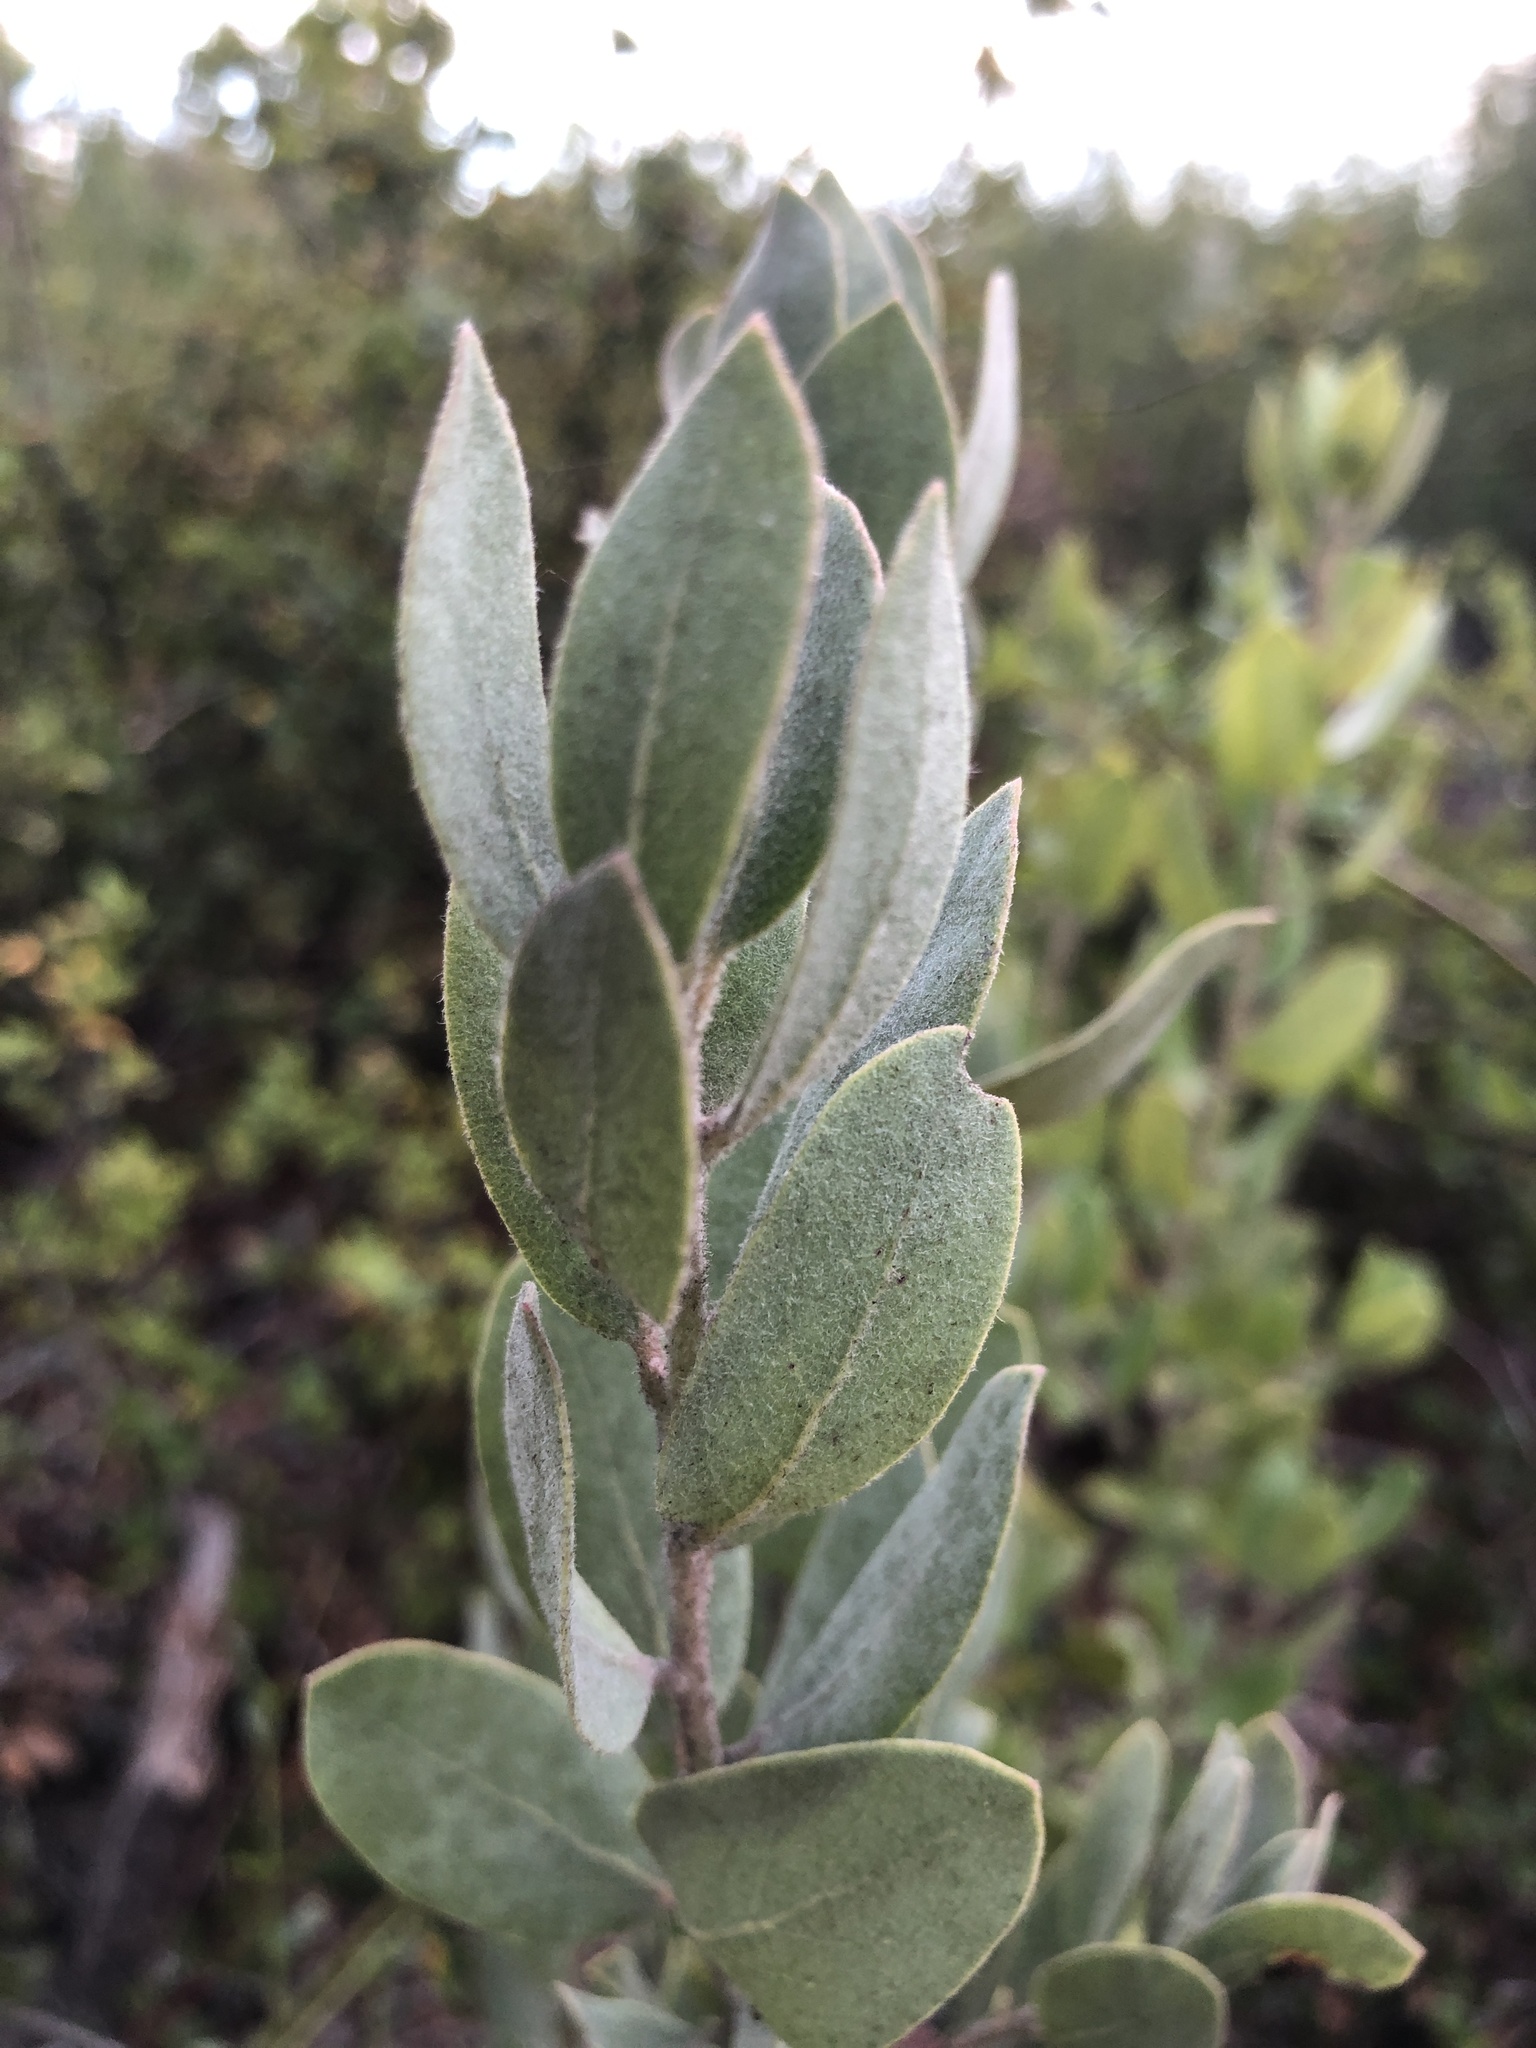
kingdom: Plantae
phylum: Tracheophyta
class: Magnoliopsida
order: Ericales
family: Ericaceae
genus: Arctostaphylos
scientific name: Arctostaphylos silvicola
